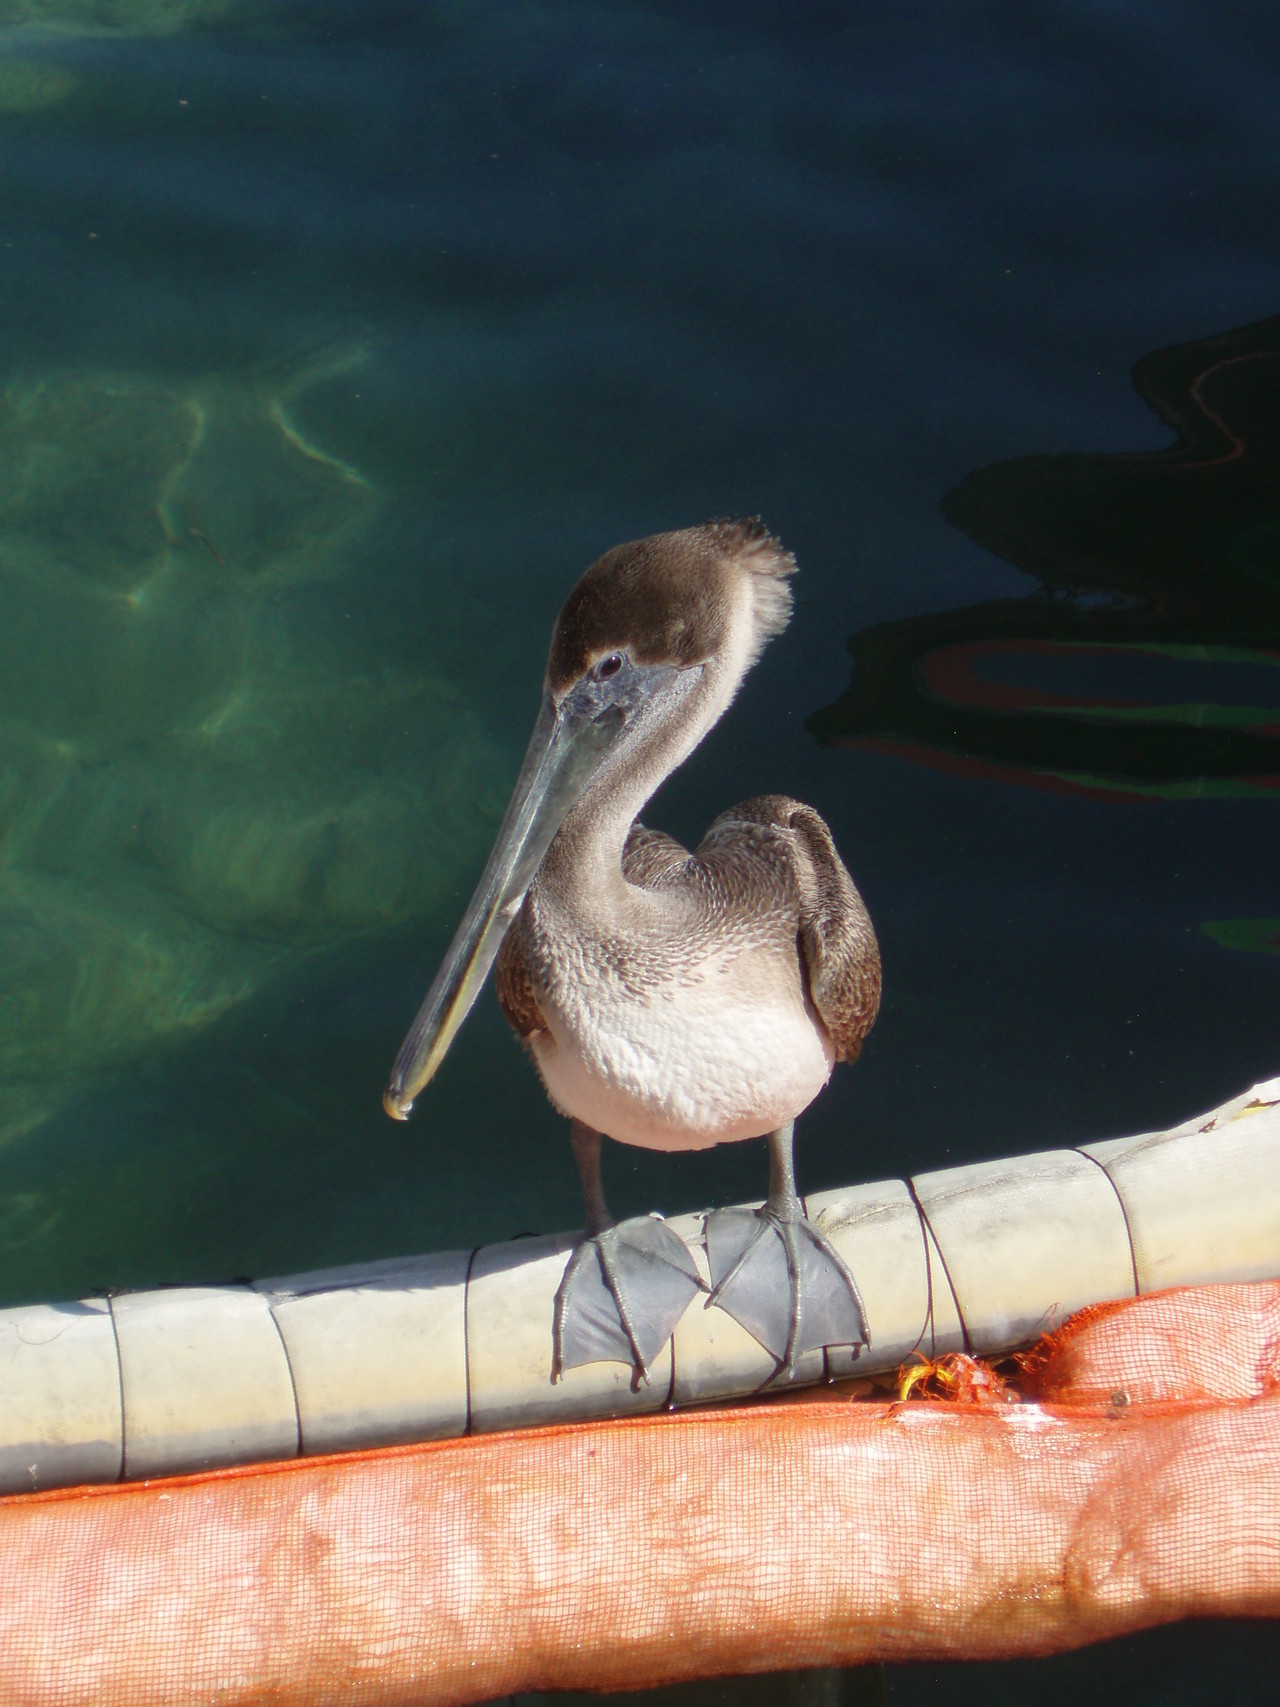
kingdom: Animalia
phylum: Chordata
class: Aves
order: Pelecaniformes
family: Pelecanidae
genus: Pelecanus
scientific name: Pelecanus occidentalis
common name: Brown pelican
